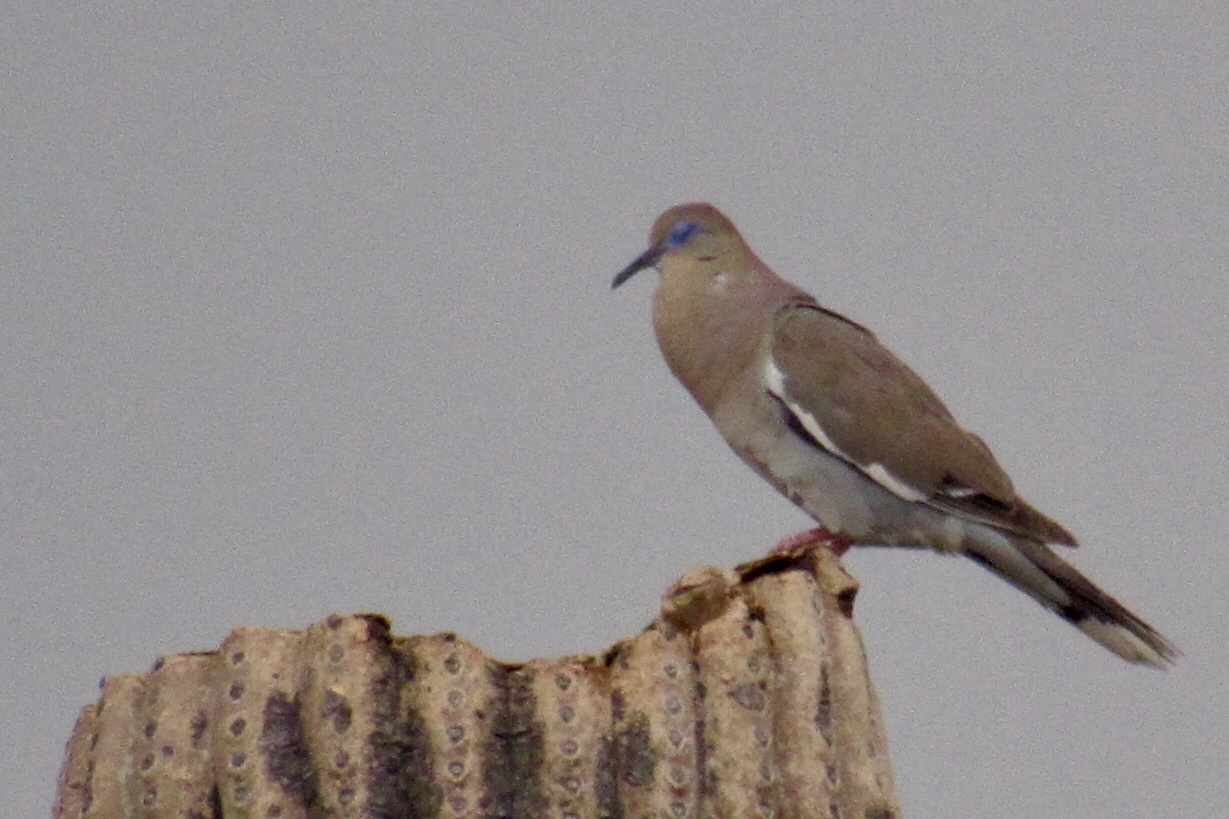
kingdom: Animalia
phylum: Chordata
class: Aves
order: Columbiformes
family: Columbidae
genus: Zenaida
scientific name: Zenaida asiatica
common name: White-winged dove
